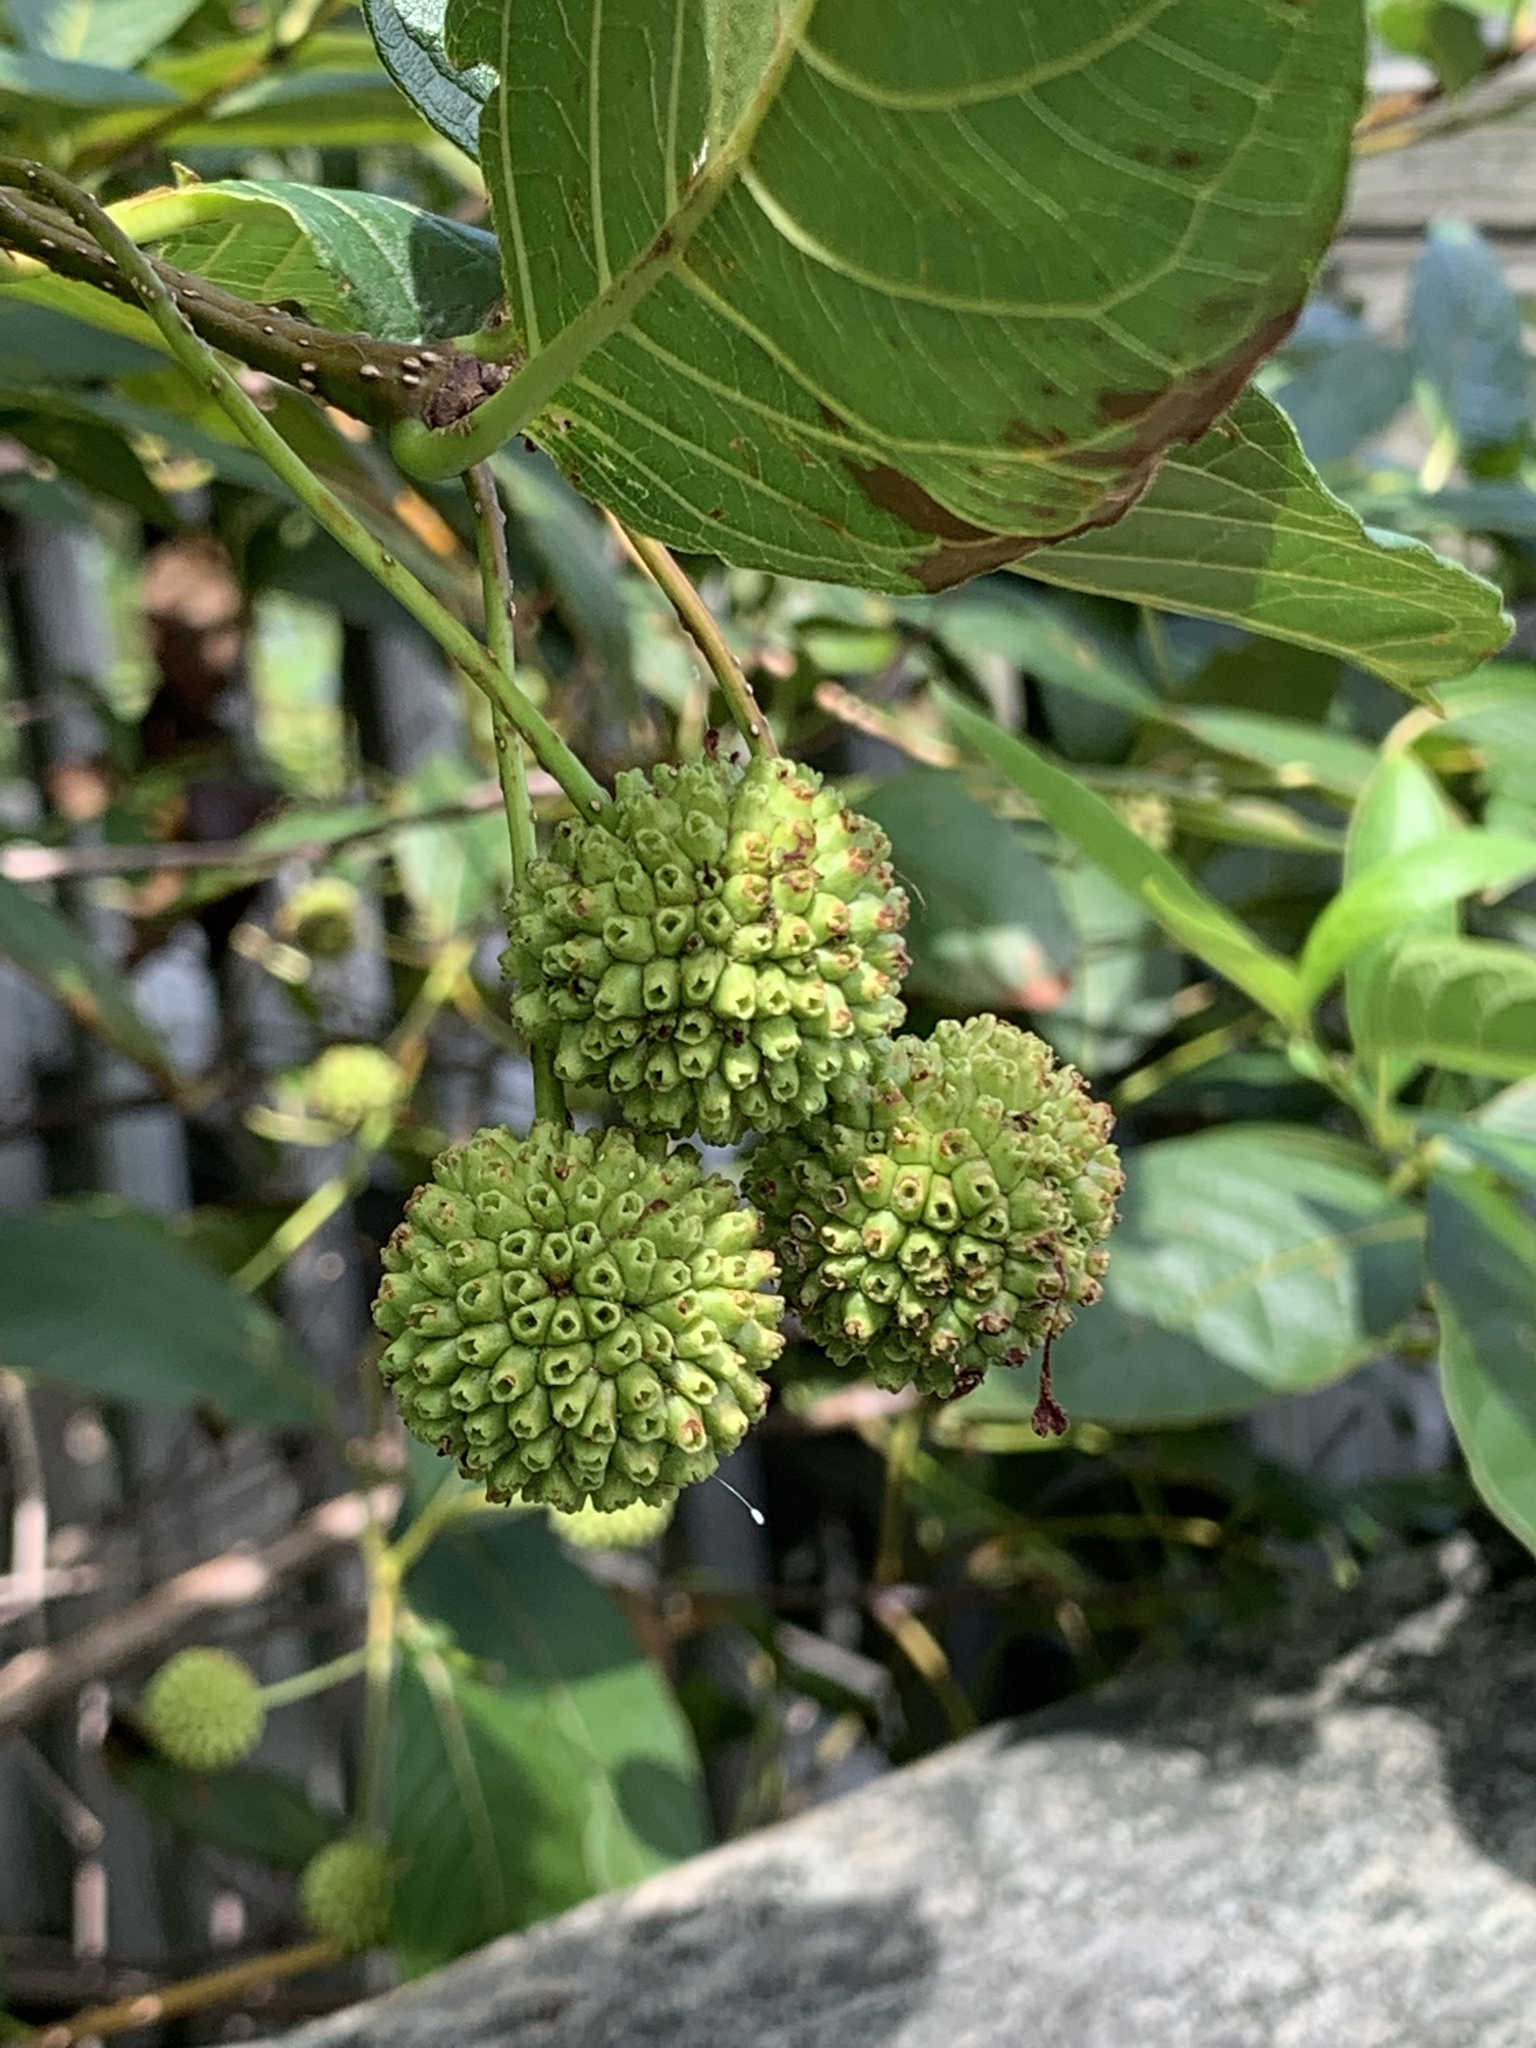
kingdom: Plantae
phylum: Tracheophyta
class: Magnoliopsida
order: Gentianales
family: Rubiaceae
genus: Cephalanthus
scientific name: Cephalanthus occidentalis
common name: Button-willow
